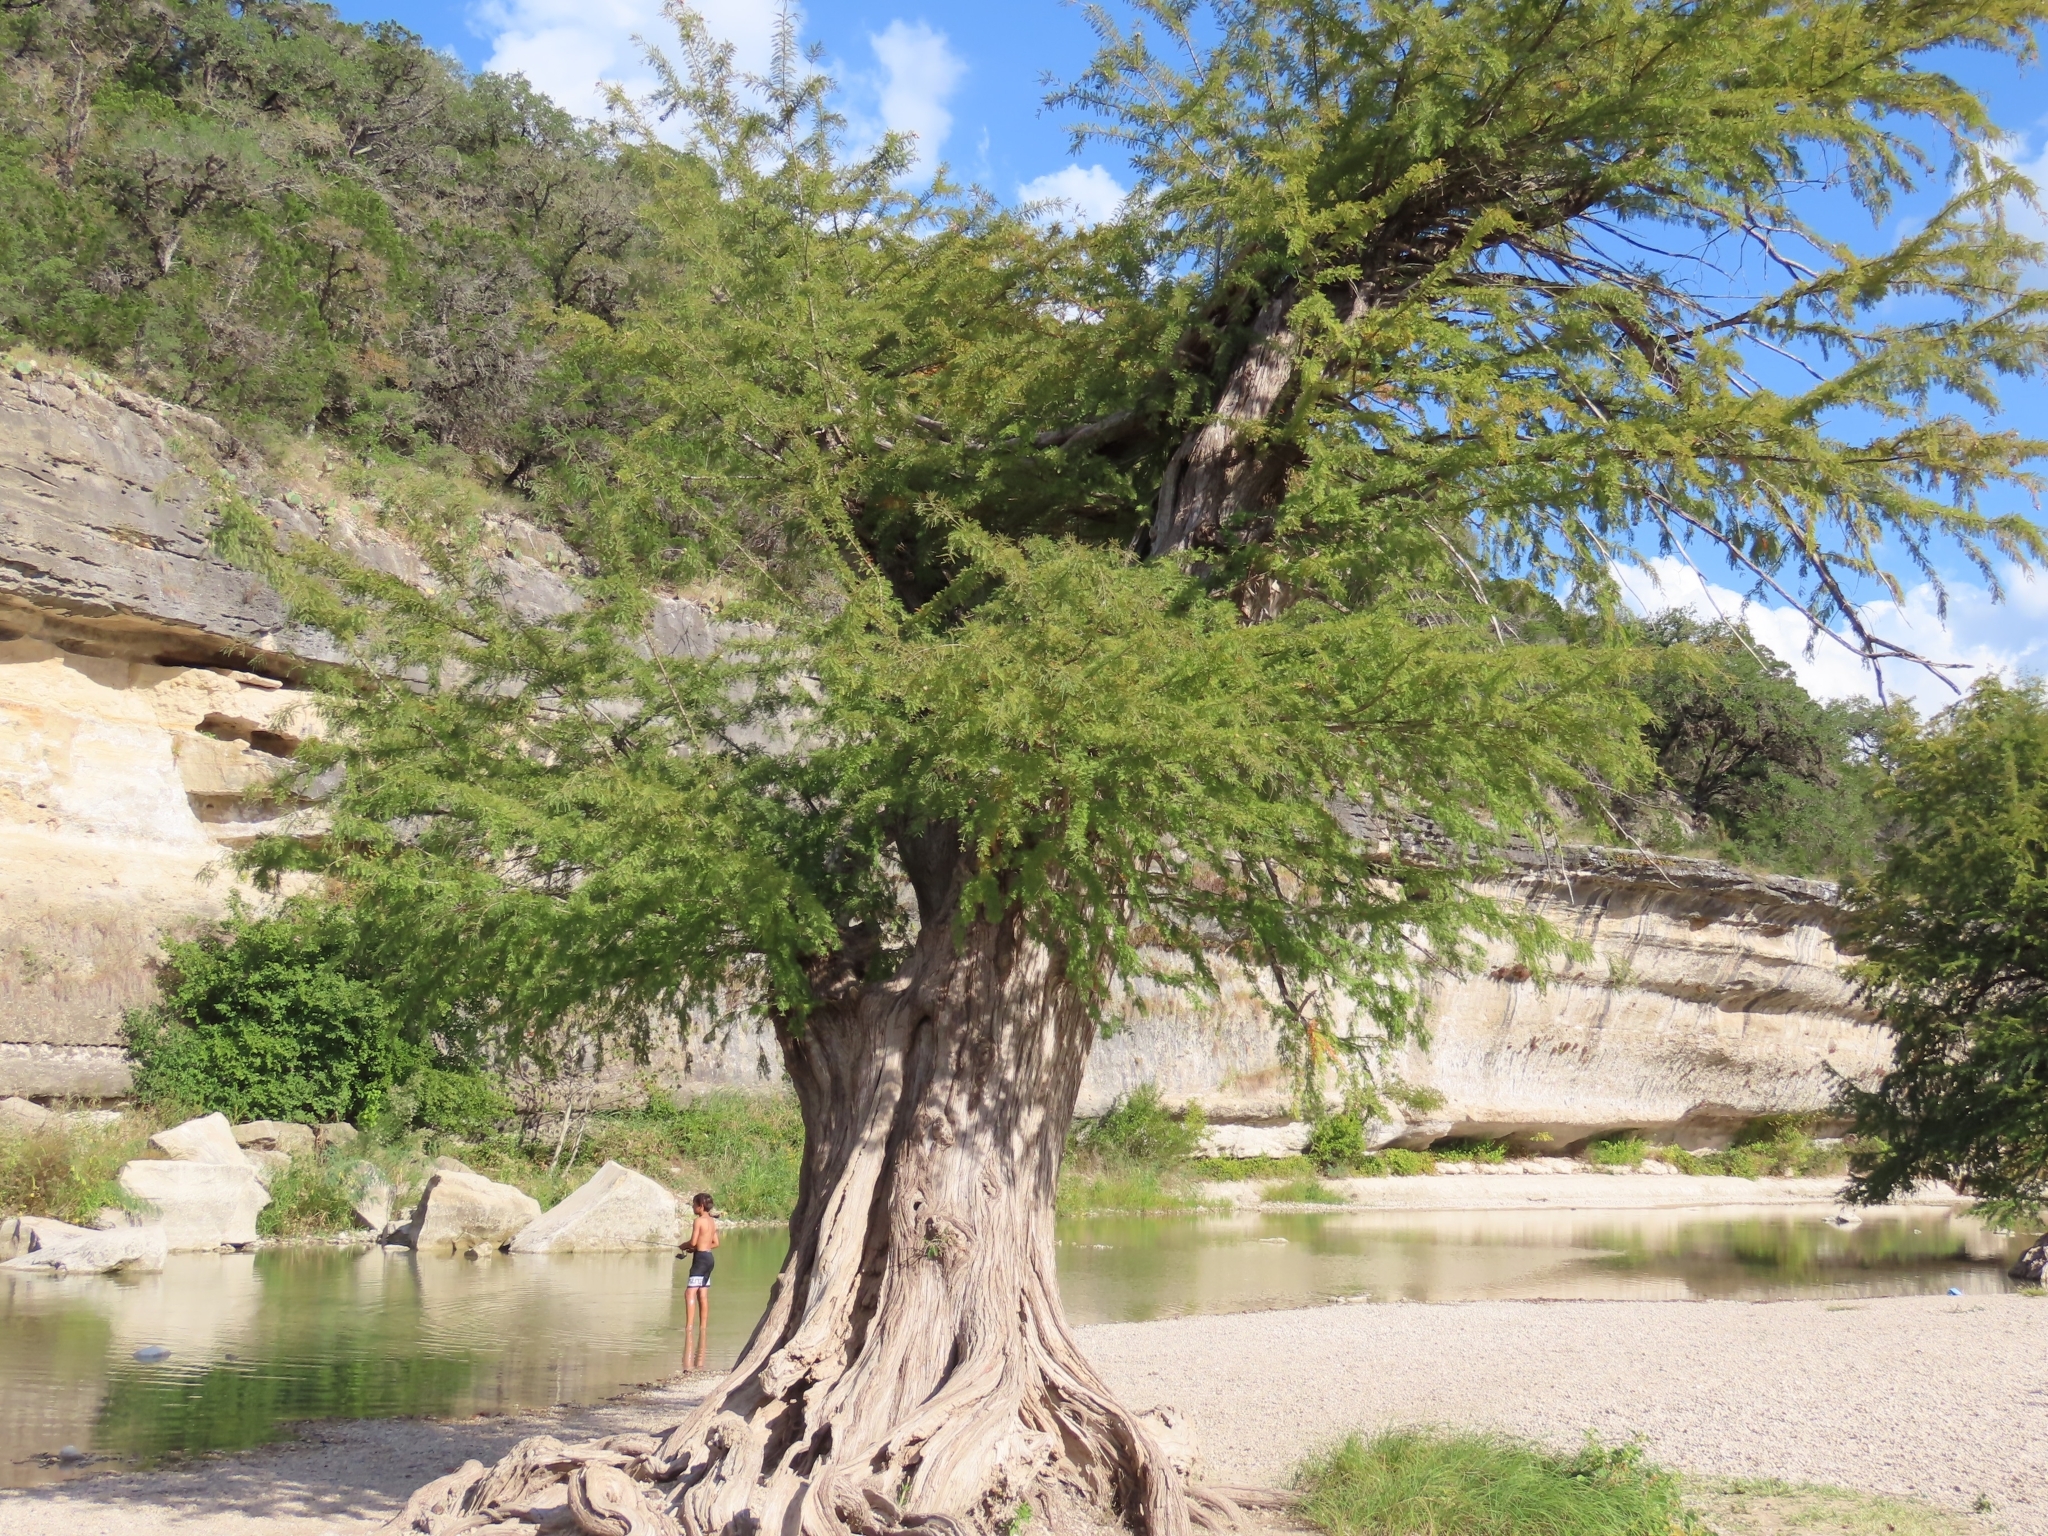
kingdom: Plantae
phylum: Tracheophyta
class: Pinopsida
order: Pinales
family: Cupressaceae
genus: Taxodium
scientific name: Taxodium distichum
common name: Bald cypress
